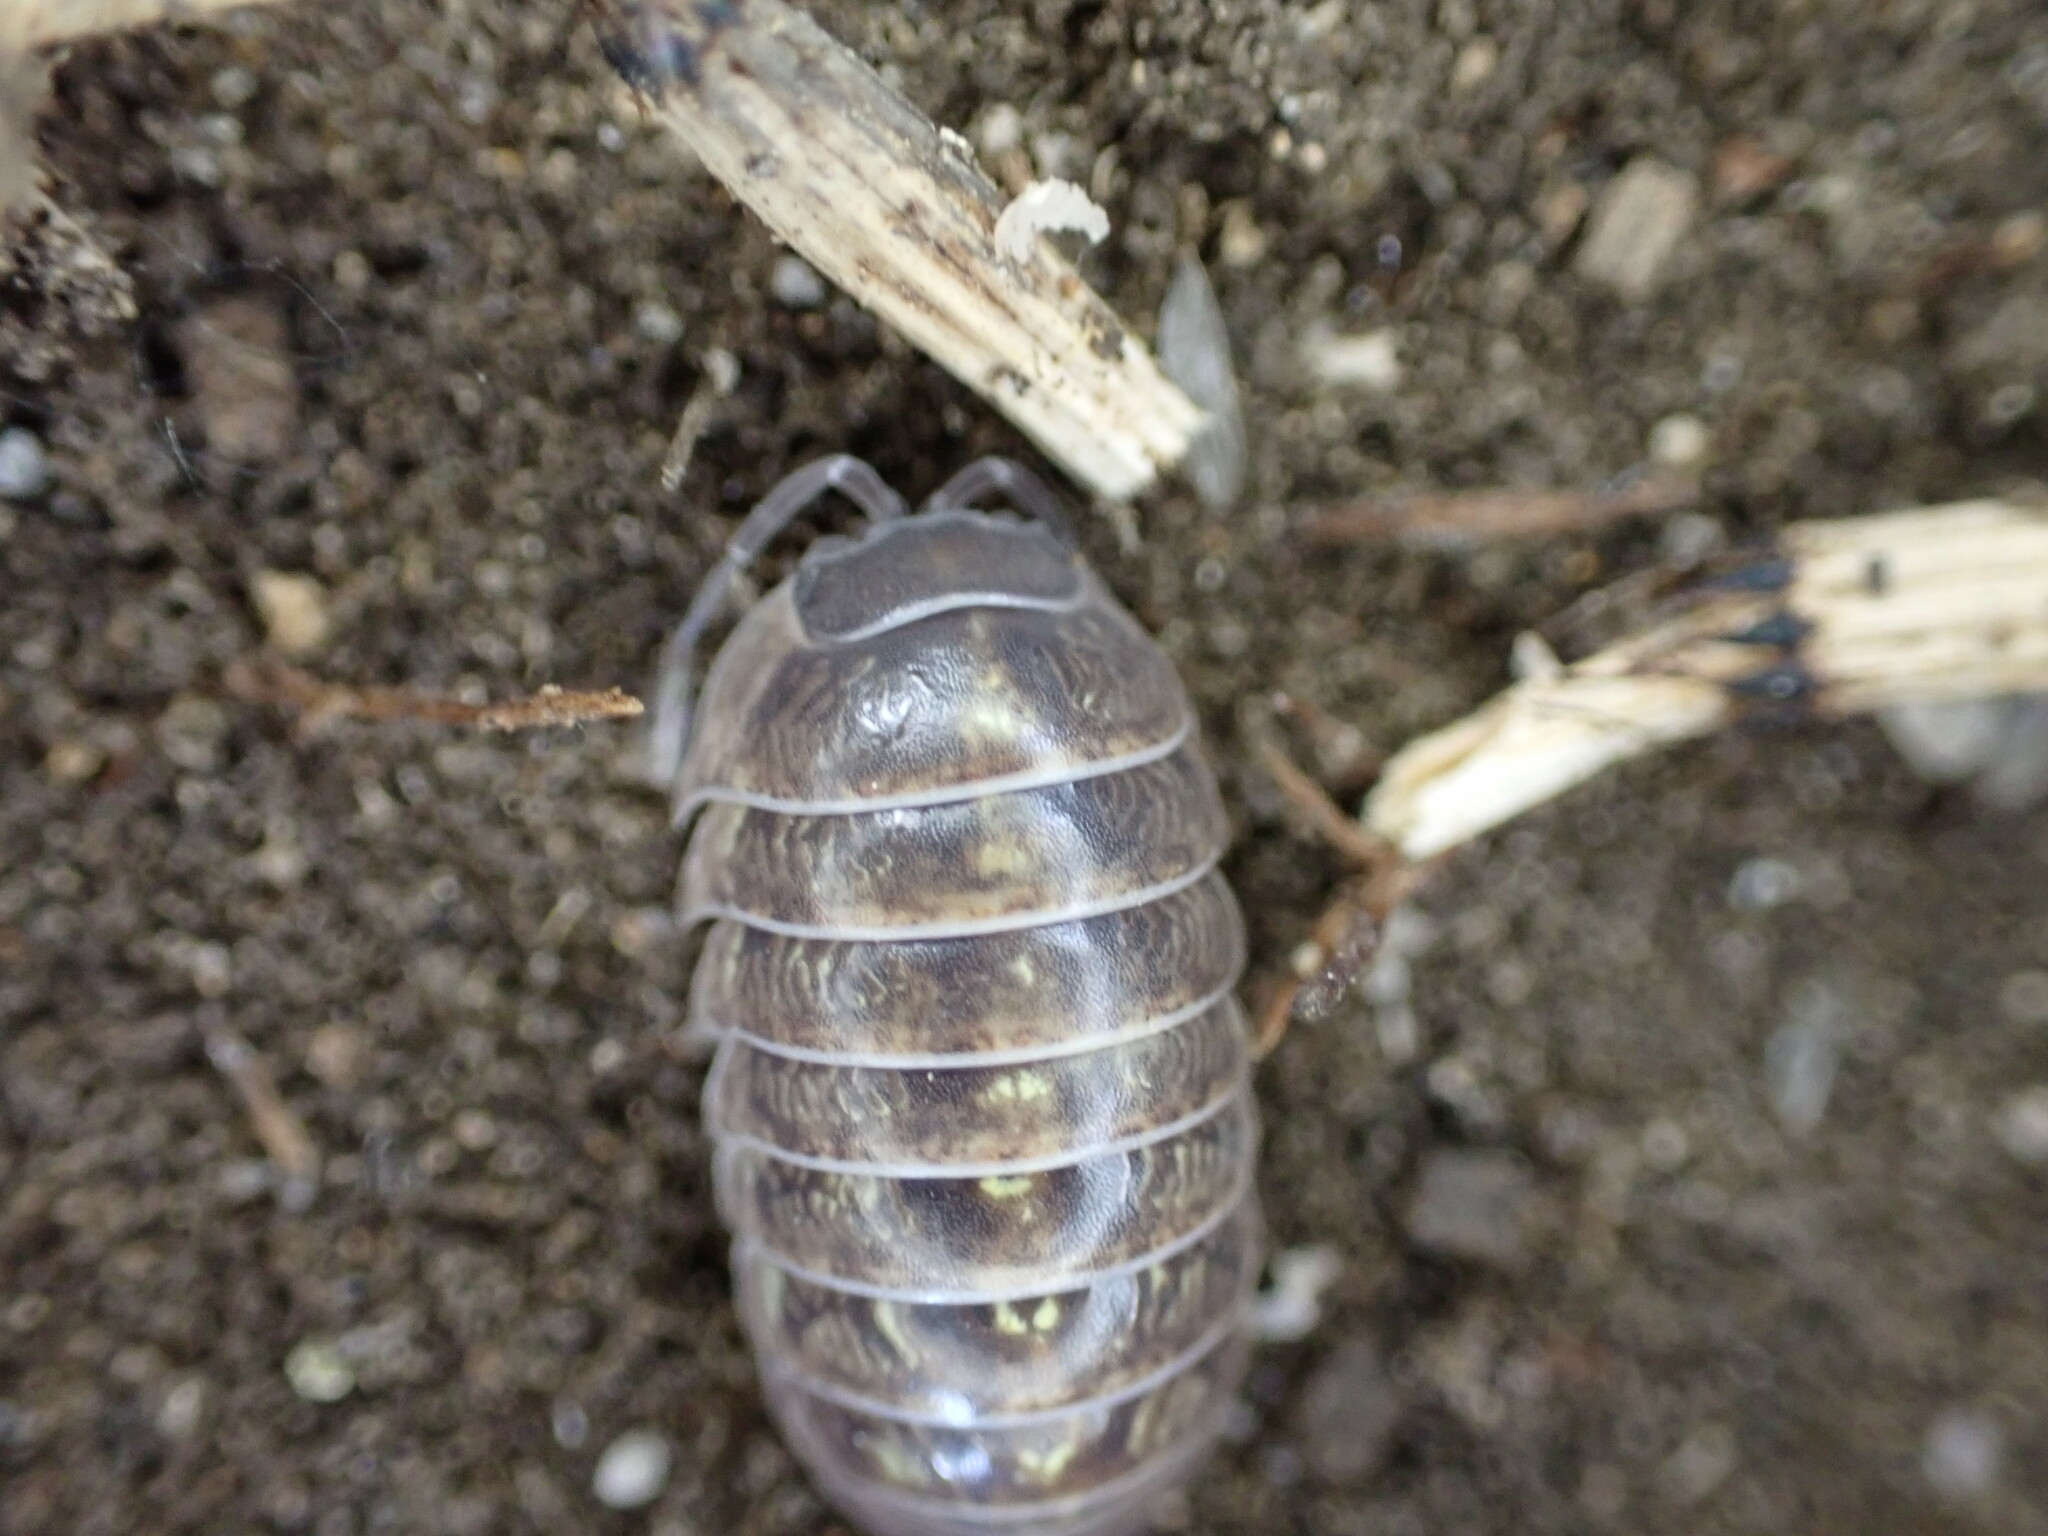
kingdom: Animalia
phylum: Arthropoda
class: Malacostraca
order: Isopoda
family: Armadillidiidae
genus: Armadillidium
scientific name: Armadillidium vulgare
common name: Common pill woodlouse
